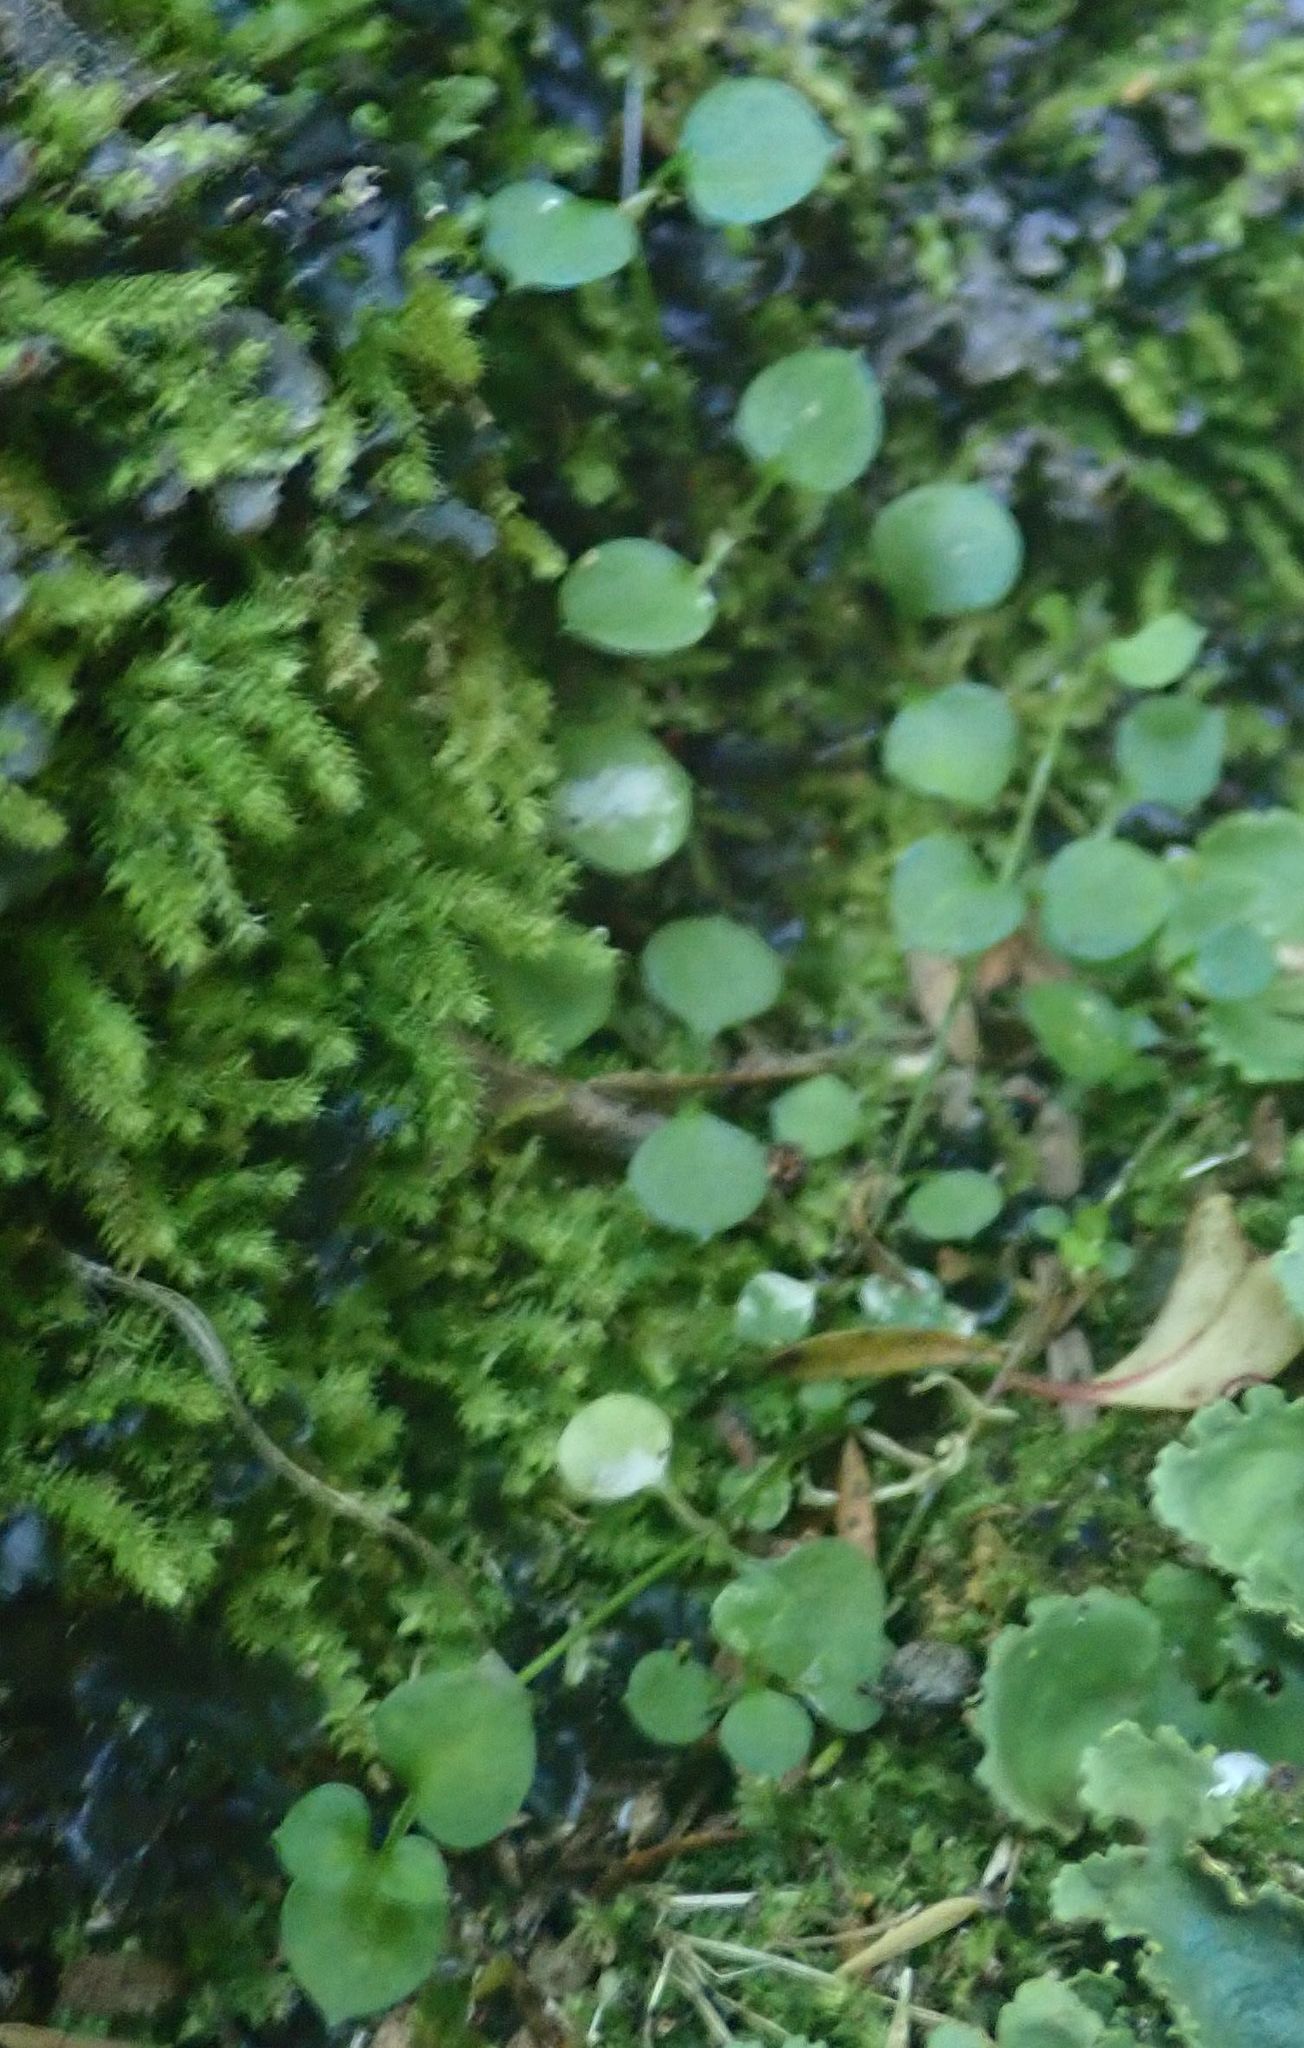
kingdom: Plantae
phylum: Tracheophyta
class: Magnoliopsida
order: Caryophyllales
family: Caryophyllaceae
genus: Stellaria
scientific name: Stellaria parviflora
